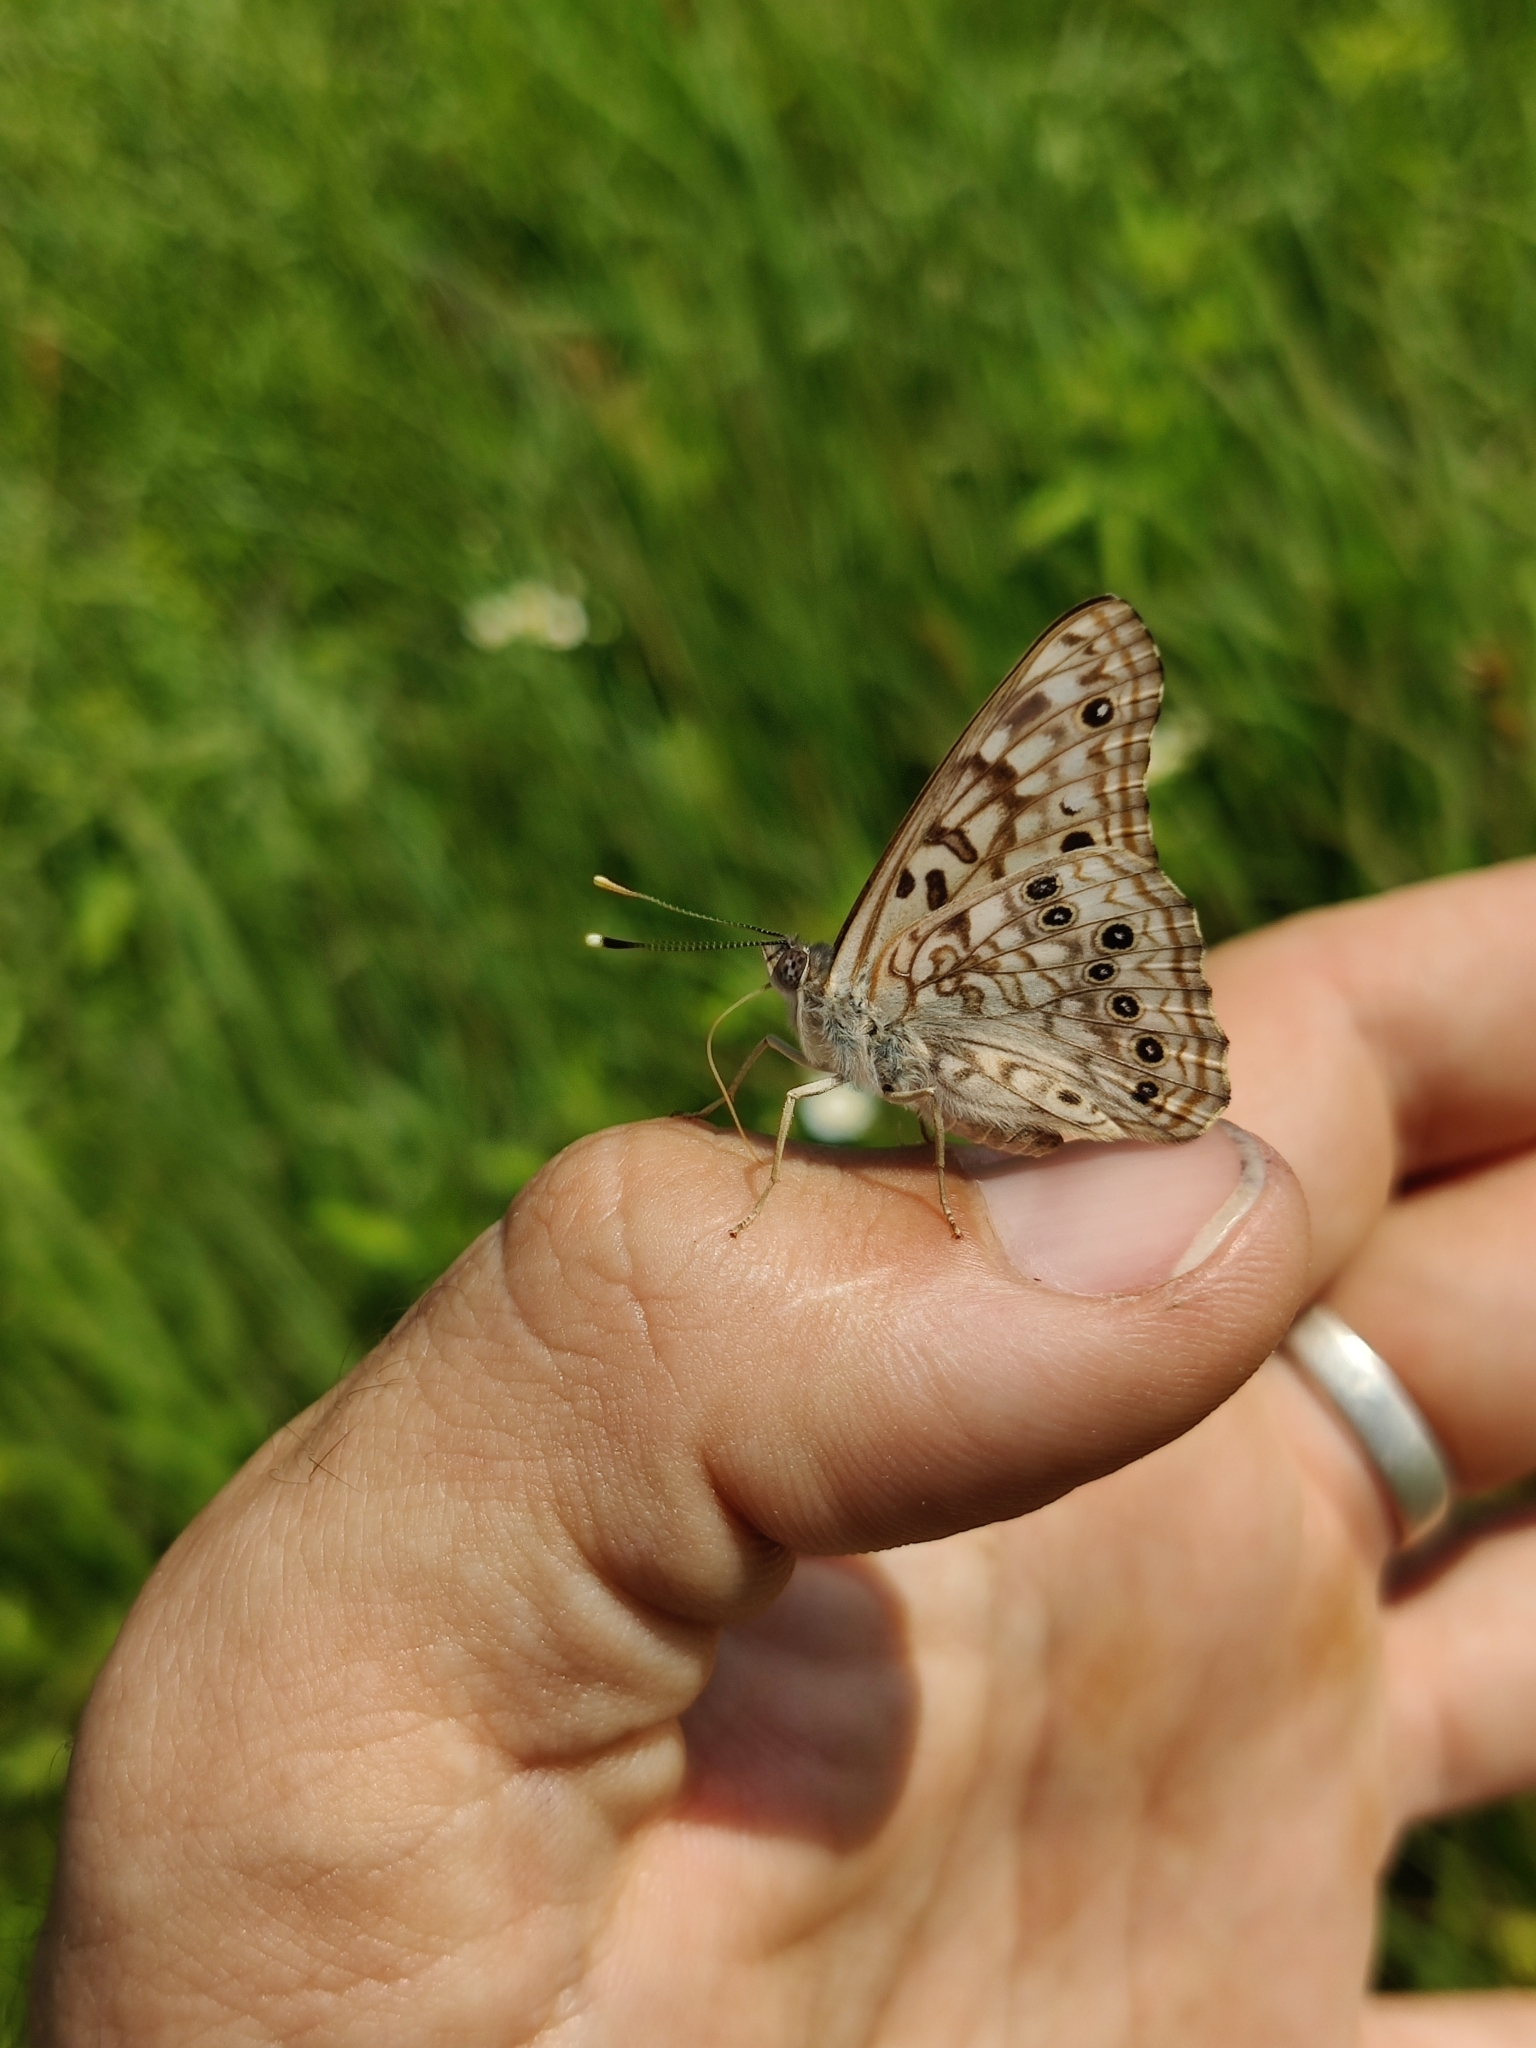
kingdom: Animalia
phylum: Arthropoda
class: Insecta
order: Lepidoptera
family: Nymphalidae
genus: Asterocampa
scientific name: Asterocampa celtis
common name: Hackberry emperor
